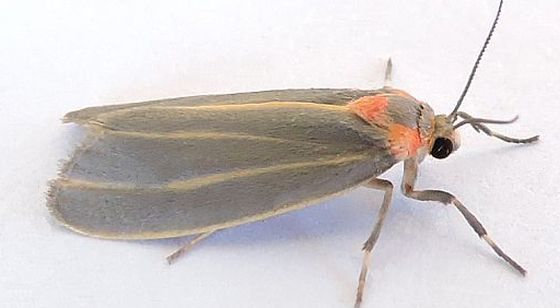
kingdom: Animalia
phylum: Arthropoda
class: Insecta
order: Lepidoptera
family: Erebidae
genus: Haematomis
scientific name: Haematomis uniformis
